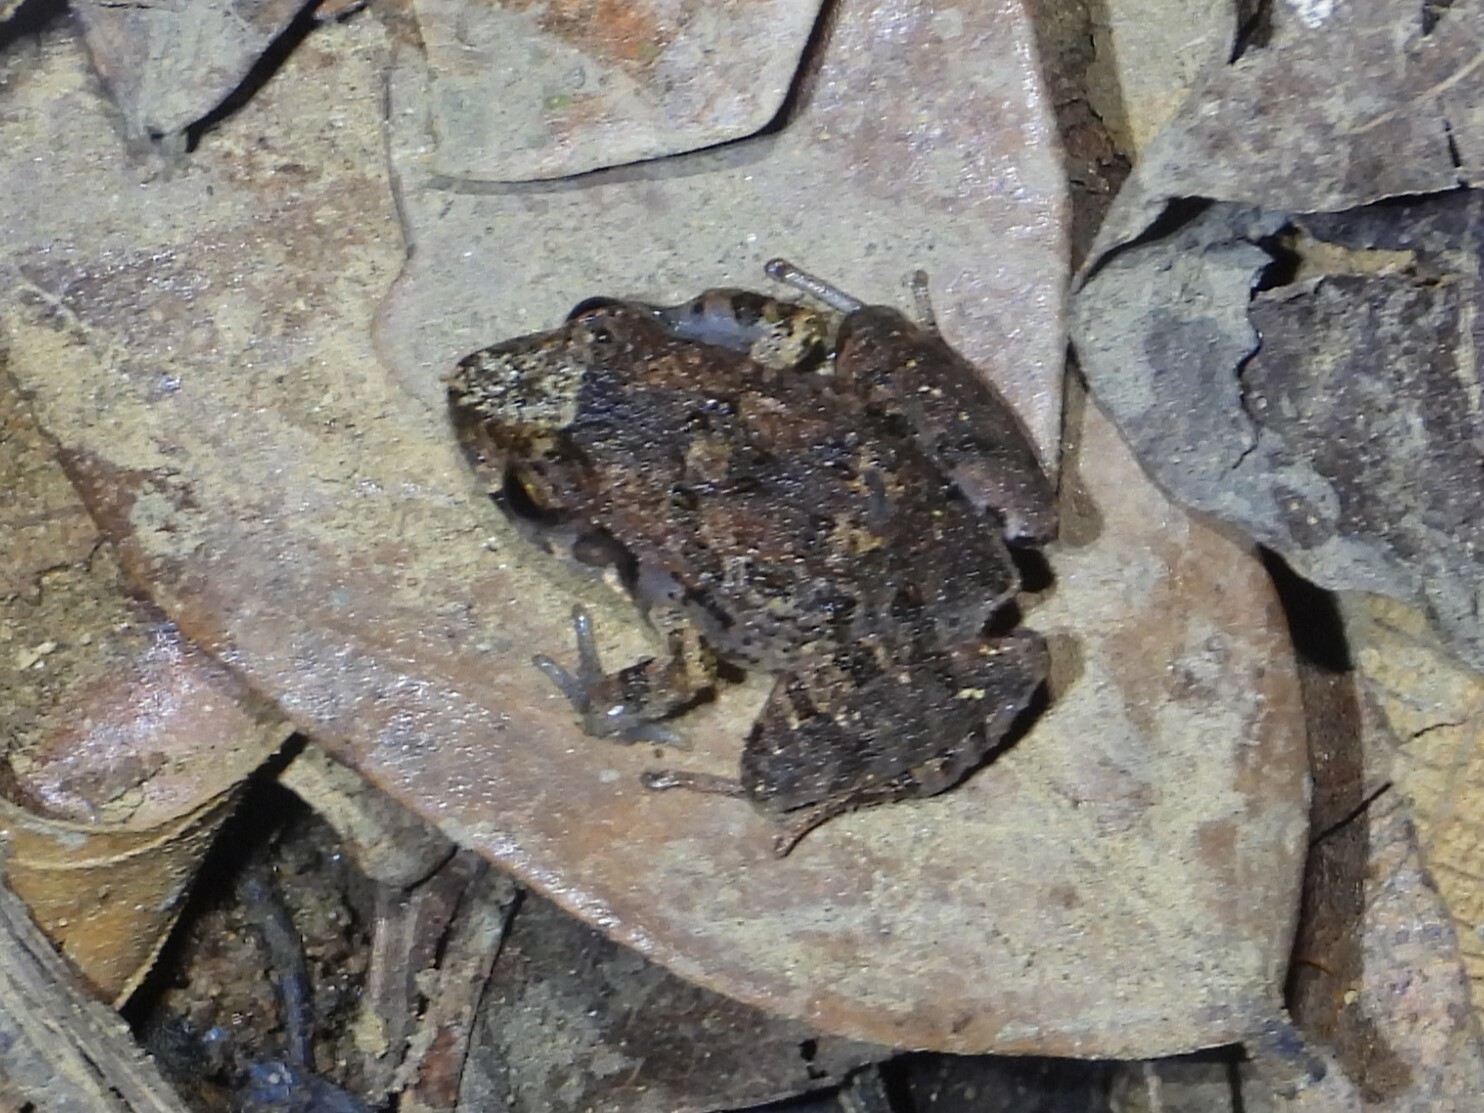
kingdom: Animalia
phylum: Chordata
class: Amphibia
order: Anura
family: Craugastoridae
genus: Craugastor
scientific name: Craugastor stejnegerianus
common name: Stejneger's robber frog
